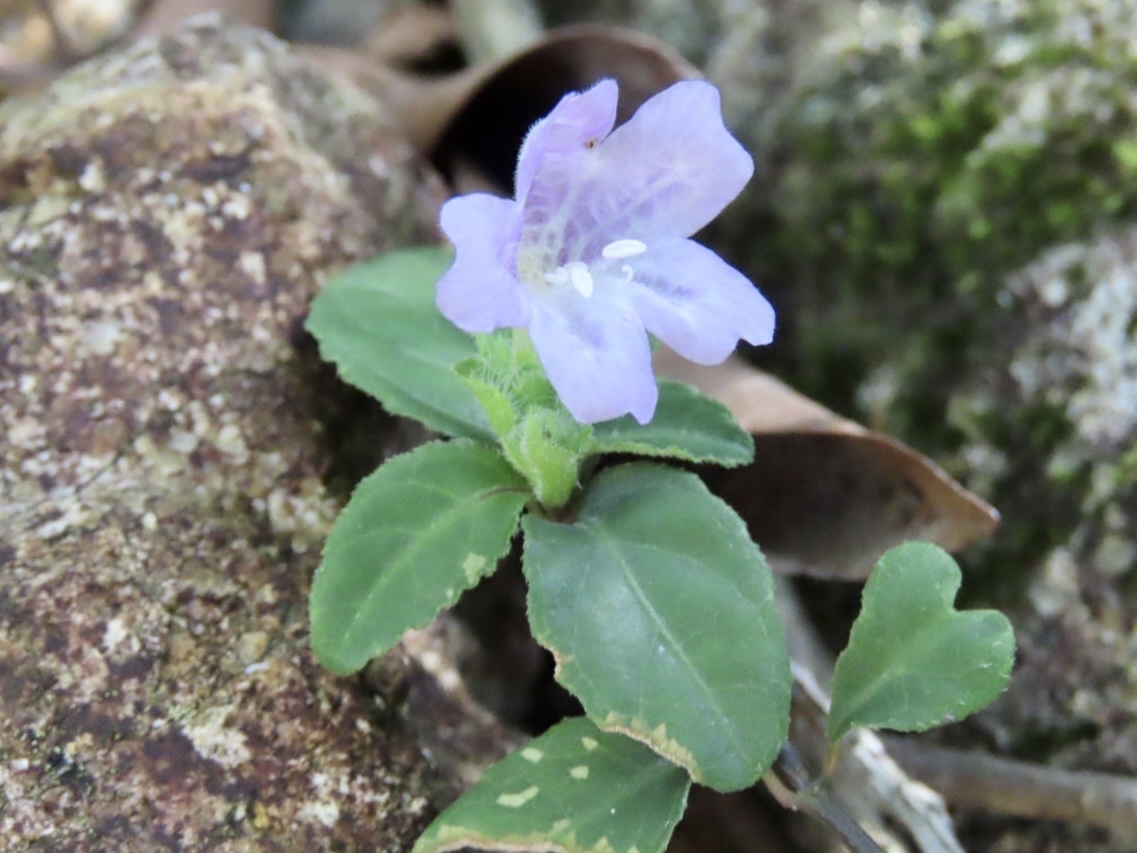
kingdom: Plantae
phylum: Tracheophyta
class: Magnoliopsida
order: Lamiales
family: Acanthaceae
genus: Strobilanthes
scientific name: Strobilanthes tetrasperma
